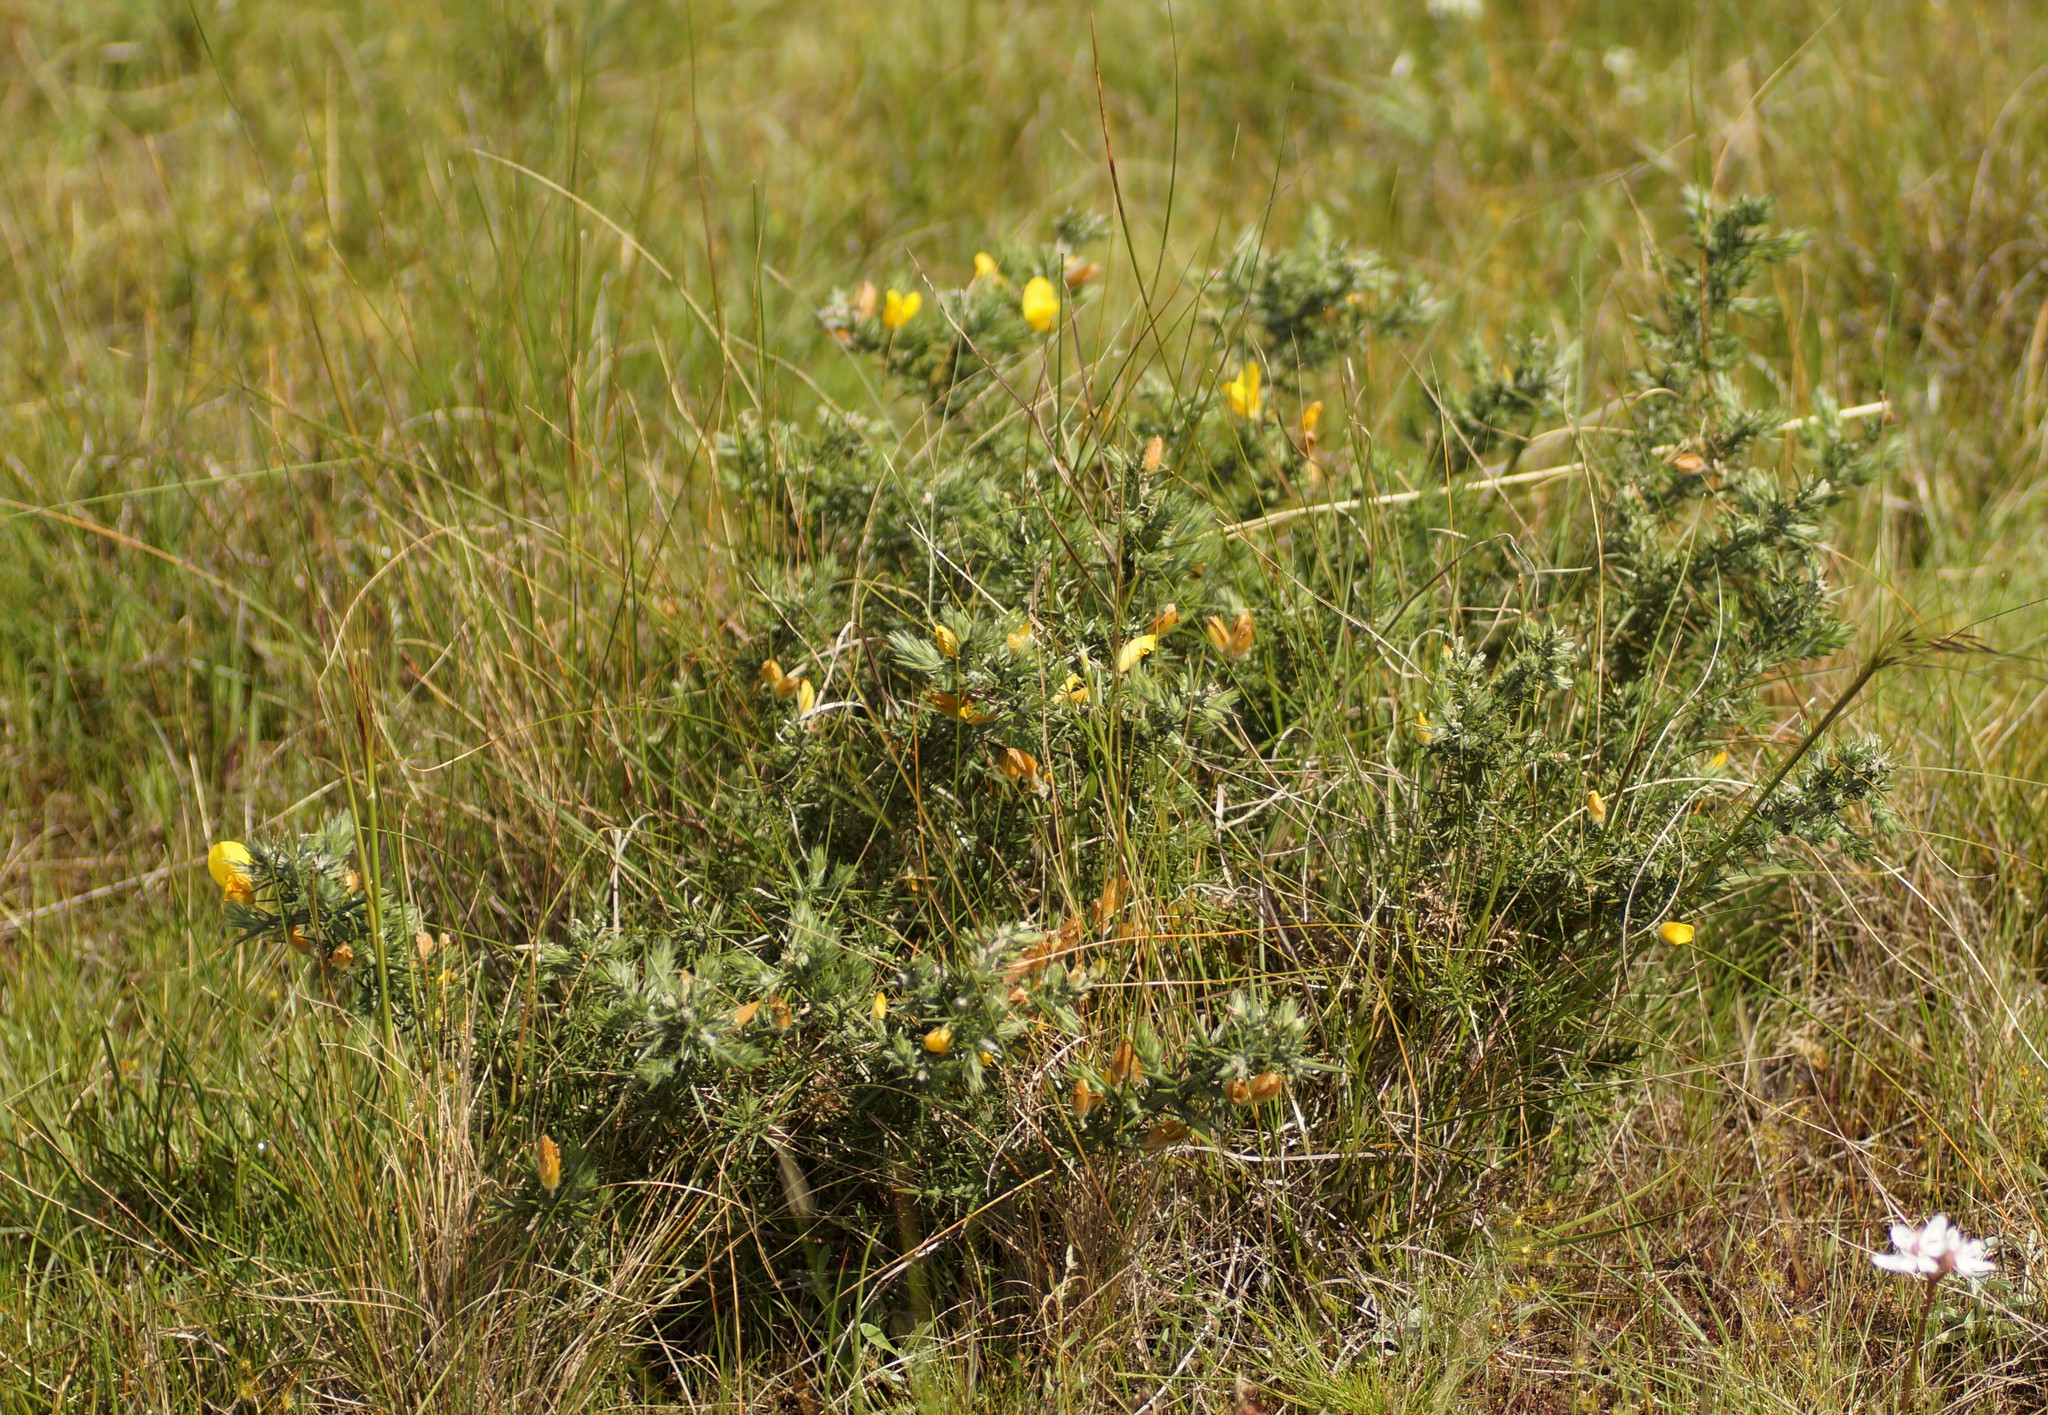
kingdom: Plantae
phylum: Tracheophyta
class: Magnoliopsida
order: Fabales
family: Fabaceae
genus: Ulex
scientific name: Ulex europaeus
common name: Common gorse
